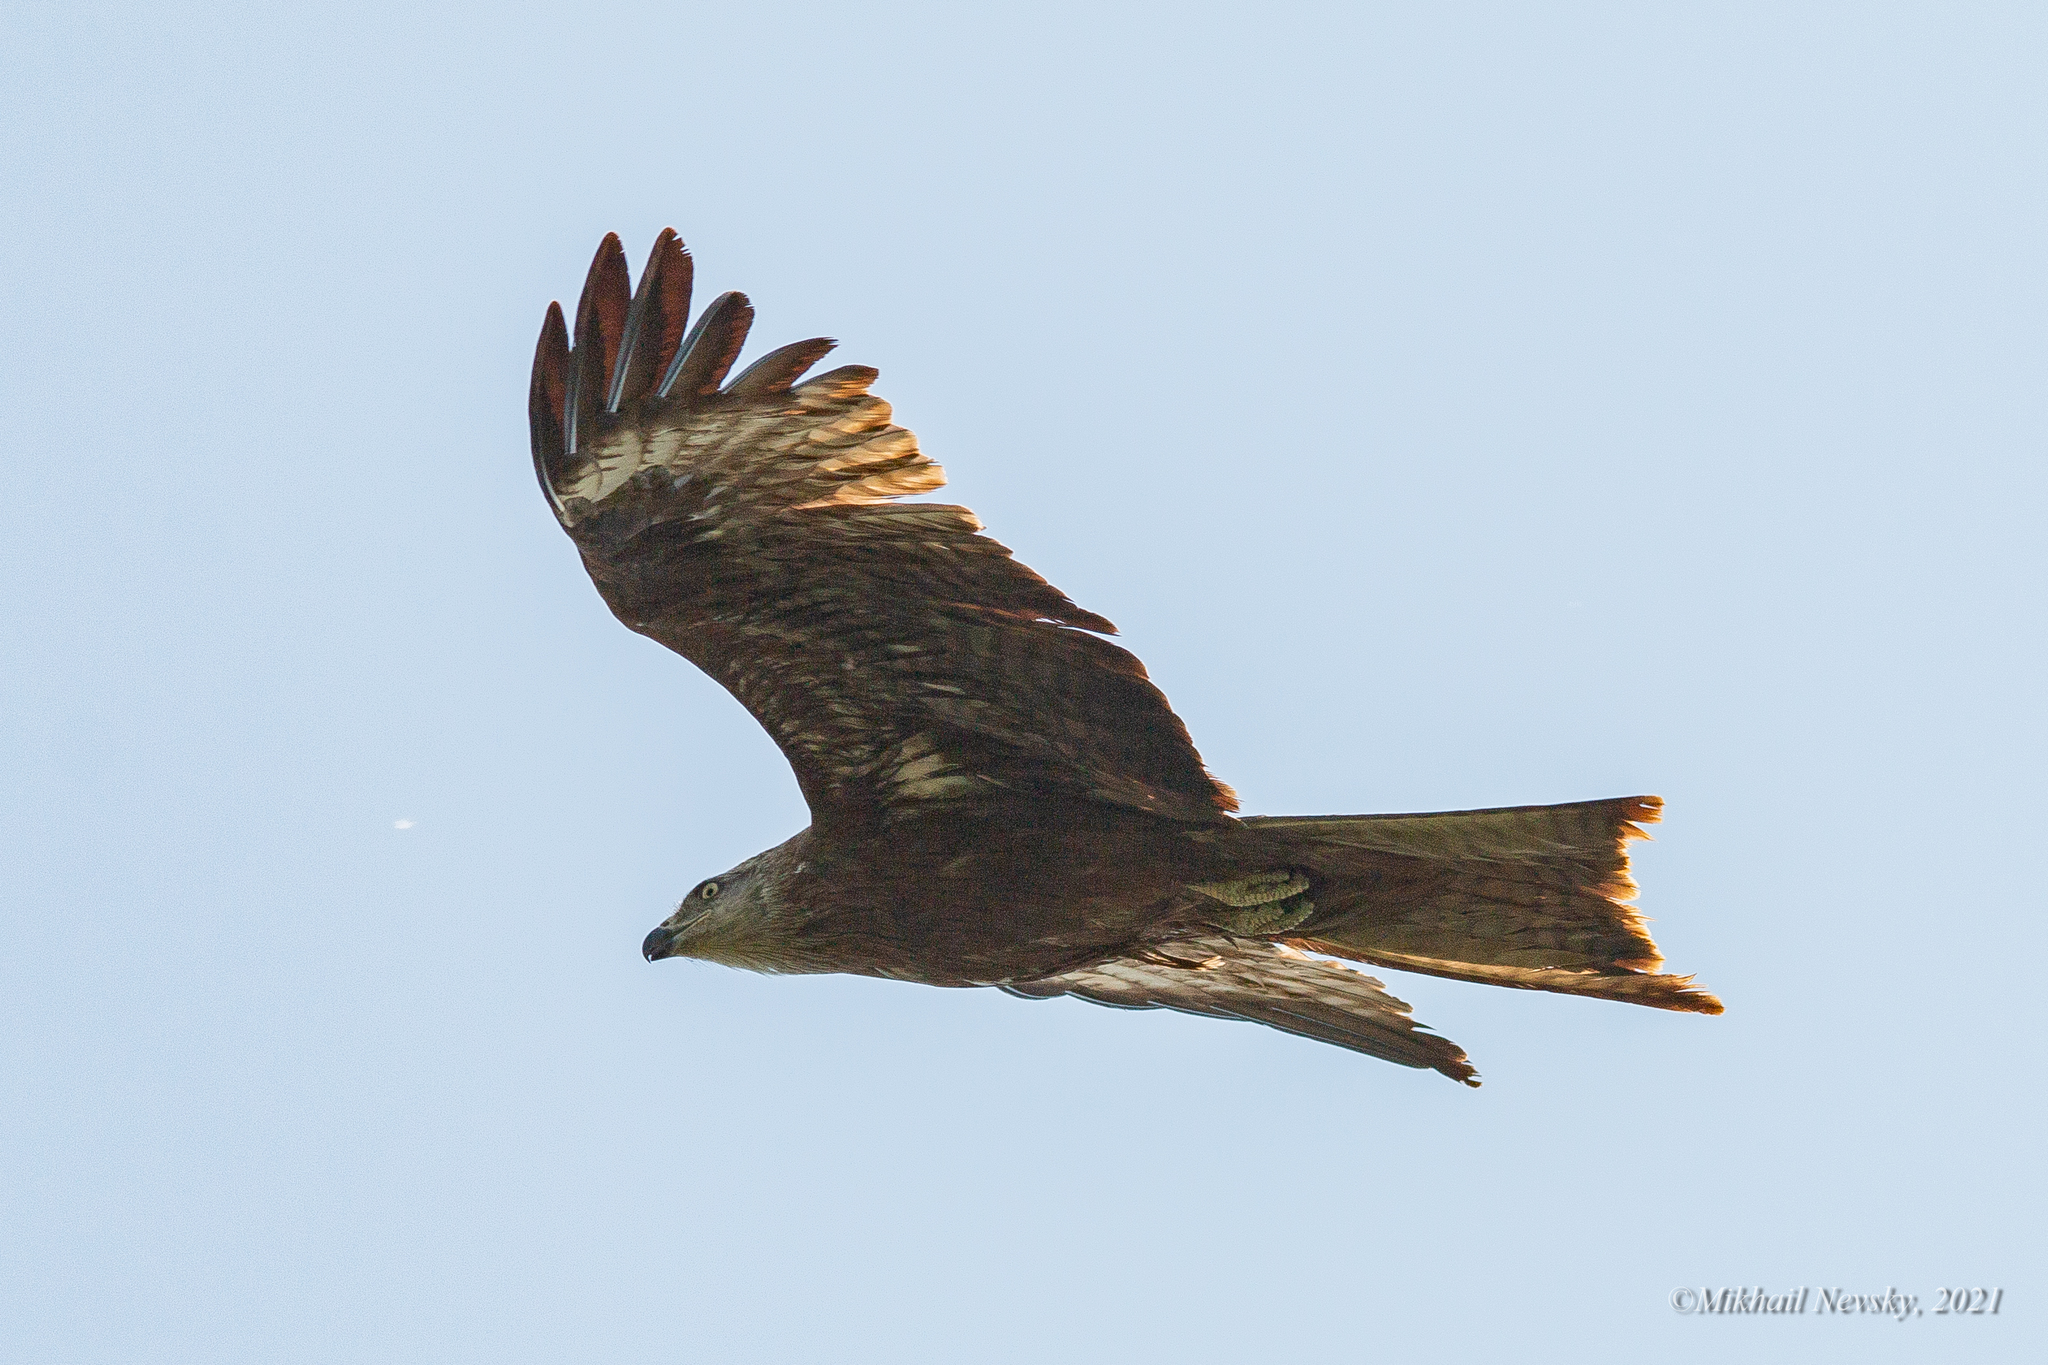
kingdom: Animalia
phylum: Chordata
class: Aves
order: Accipitriformes
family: Accipitridae
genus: Milvus
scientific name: Milvus migrans
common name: Black kite
